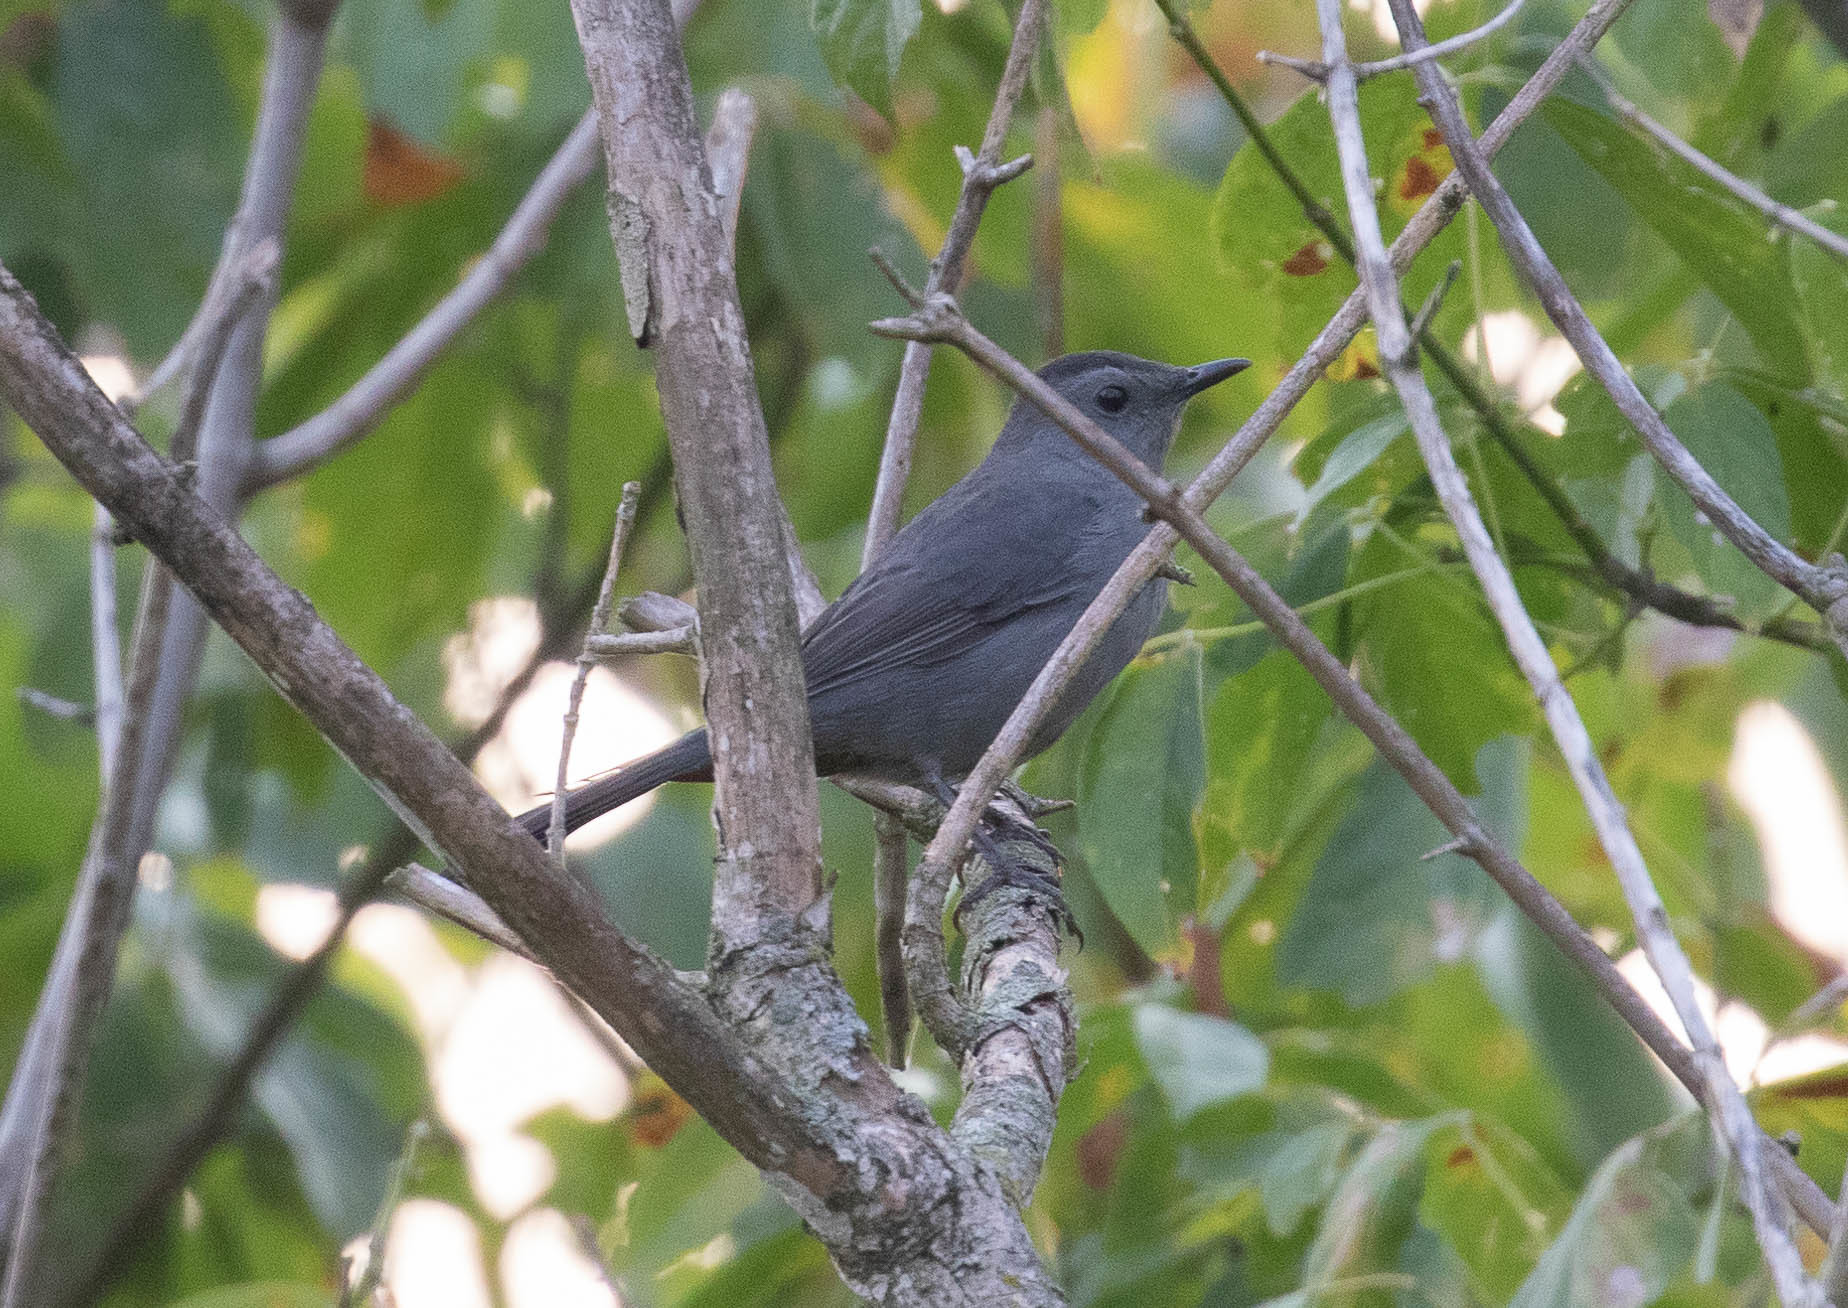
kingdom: Animalia
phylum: Chordata
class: Aves
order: Passeriformes
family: Mimidae
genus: Dumetella
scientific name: Dumetella carolinensis
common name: Gray catbird
